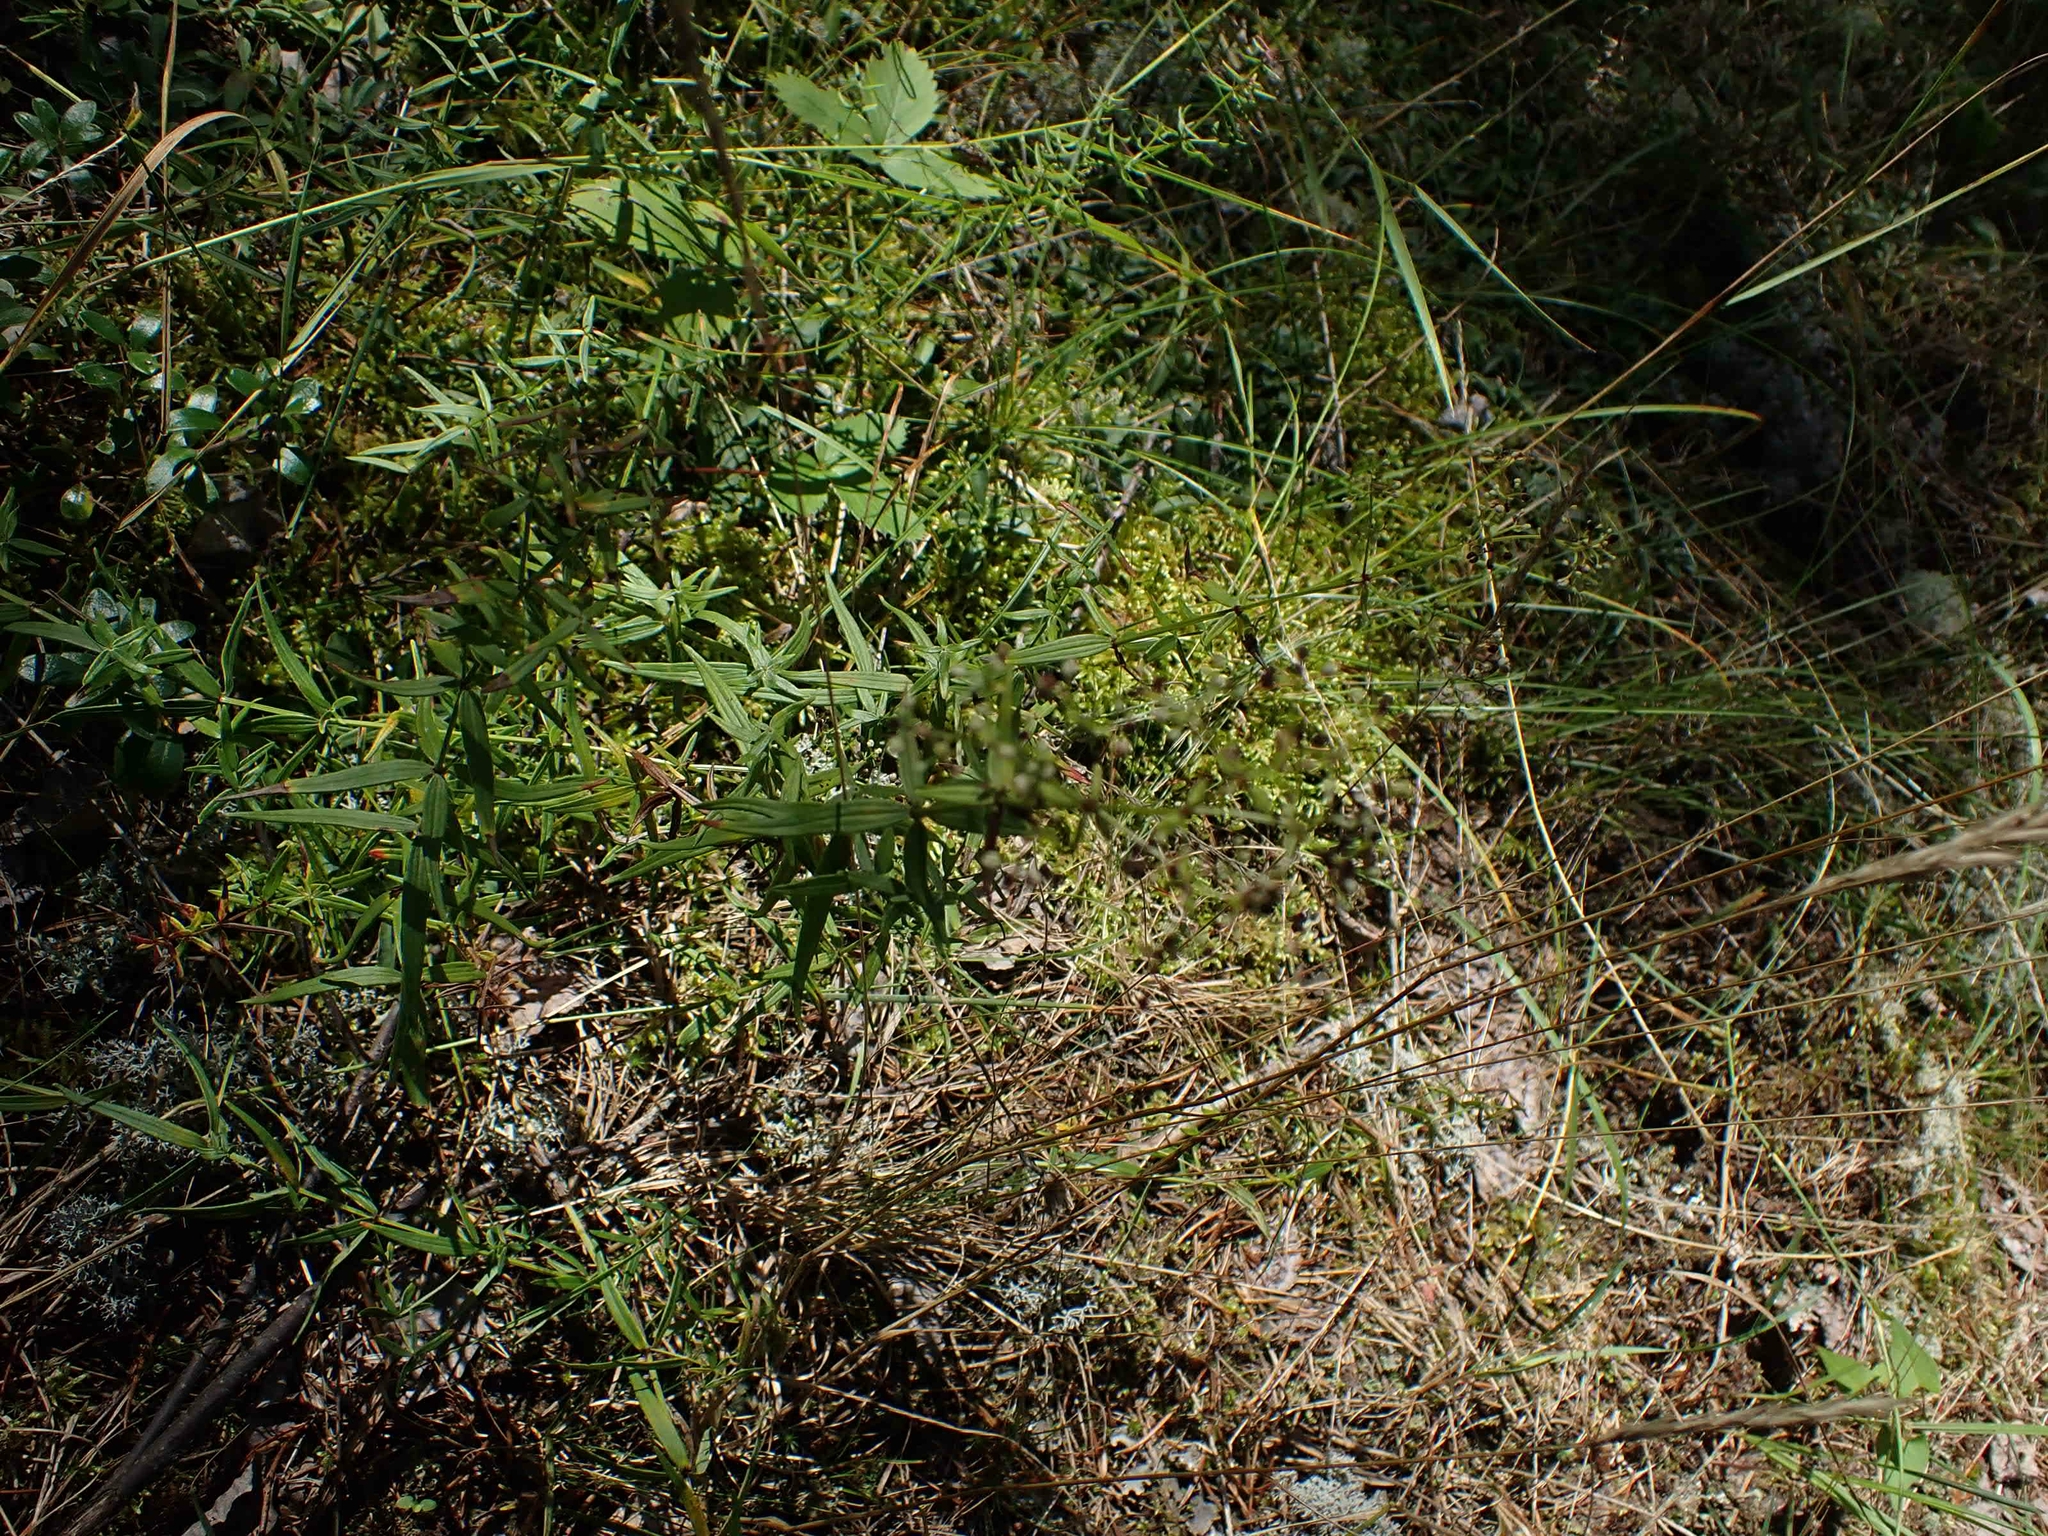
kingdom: Plantae
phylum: Tracheophyta
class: Magnoliopsida
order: Gentianales
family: Rubiaceae
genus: Galium
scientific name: Galium boreale
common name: Northern bedstraw
